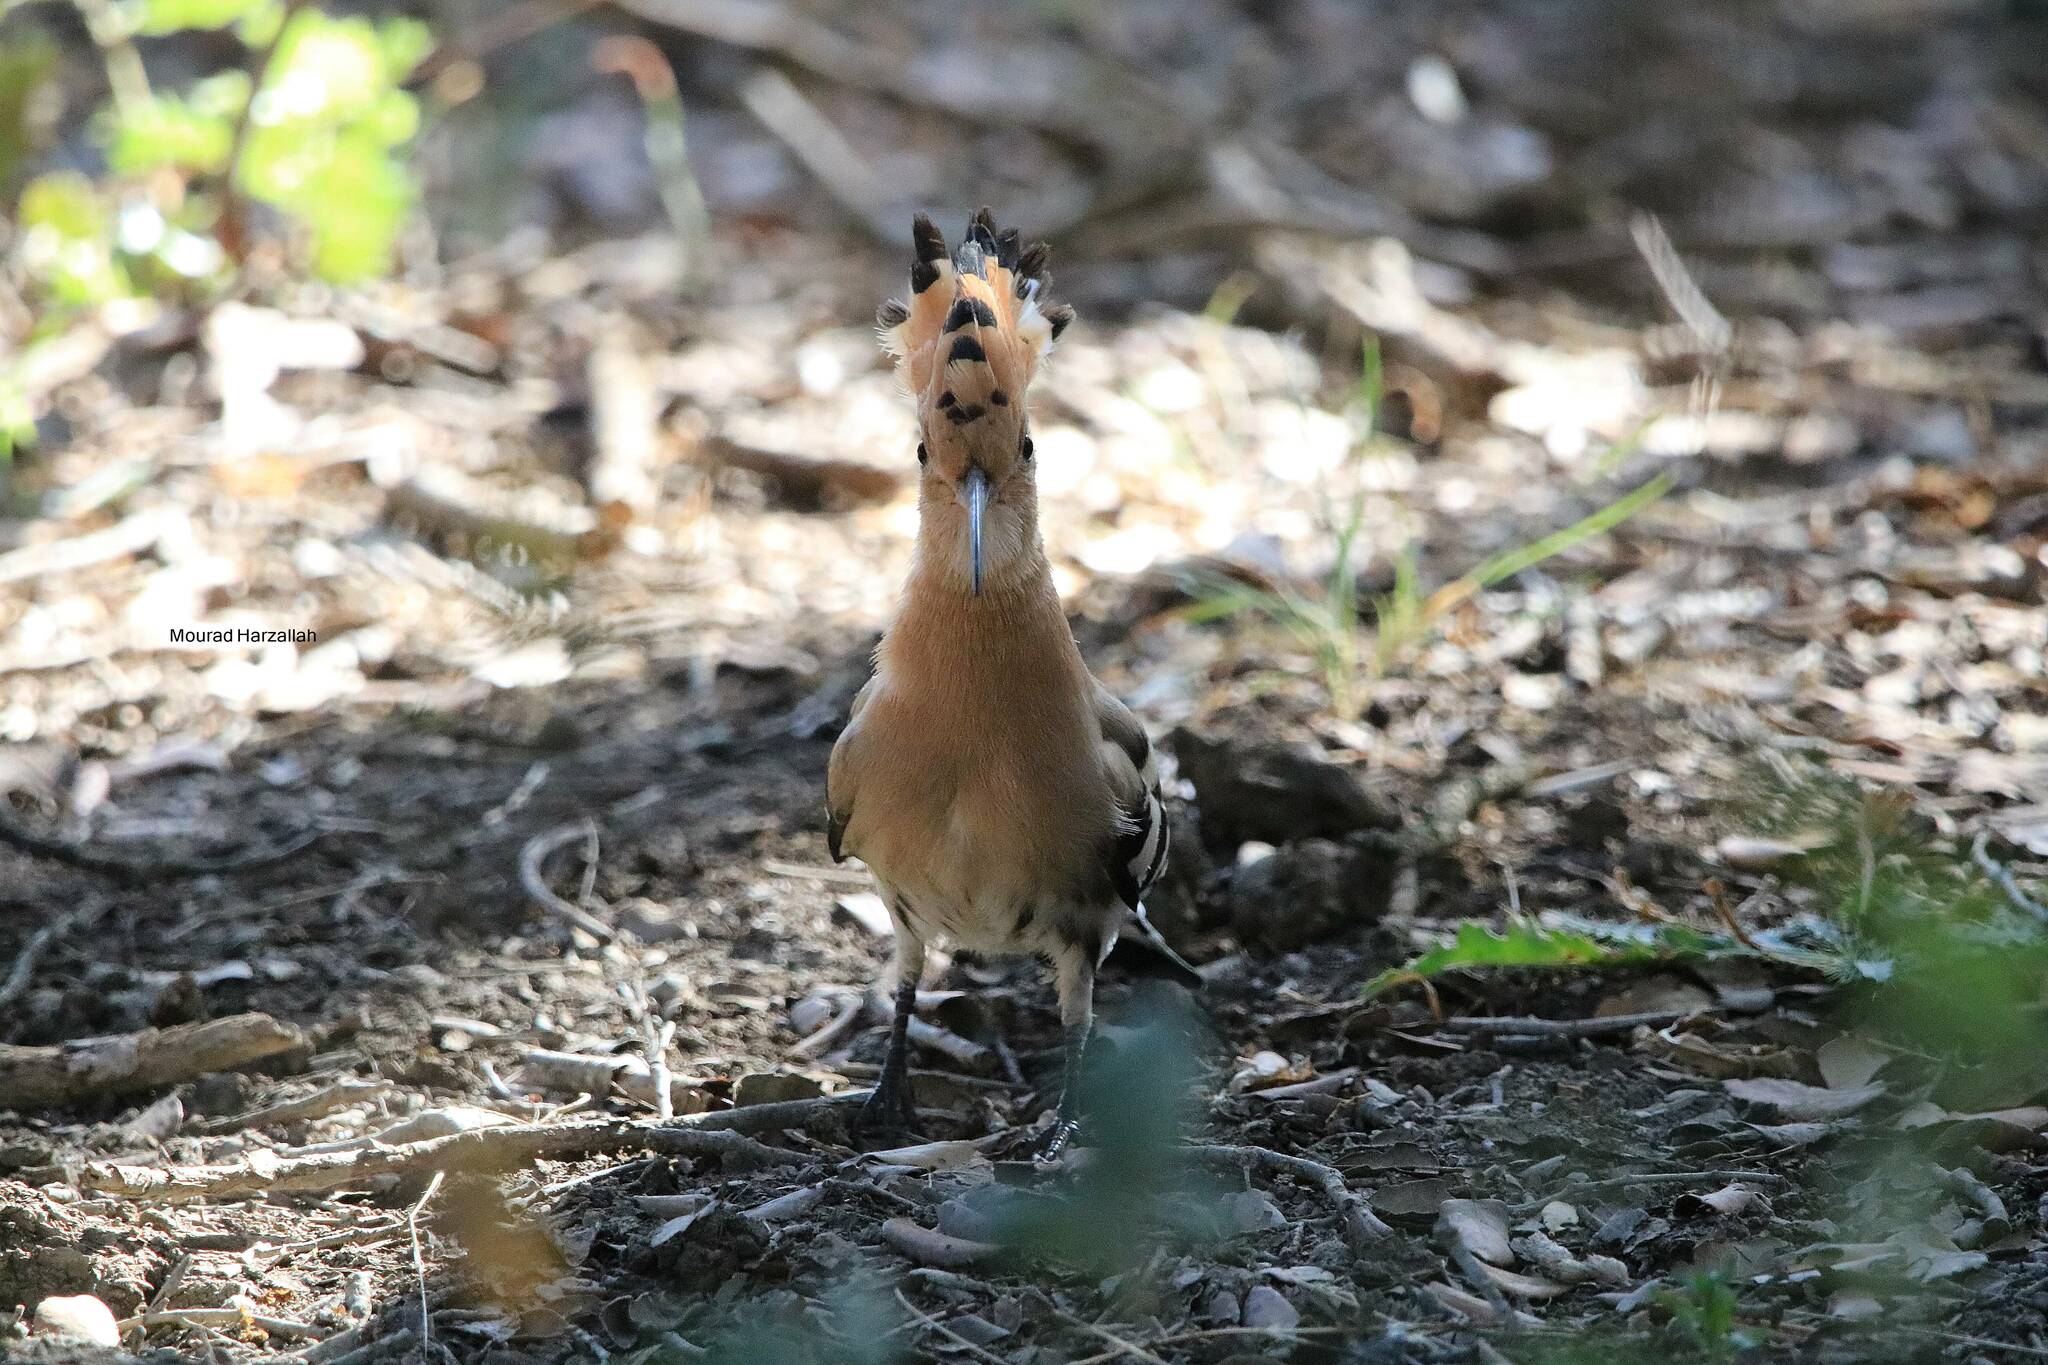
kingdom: Animalia
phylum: Chordata
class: Aves
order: Bucerotiformes
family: Upupidae
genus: Upupa
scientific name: Upupa epops
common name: Eurasian hoopoe
